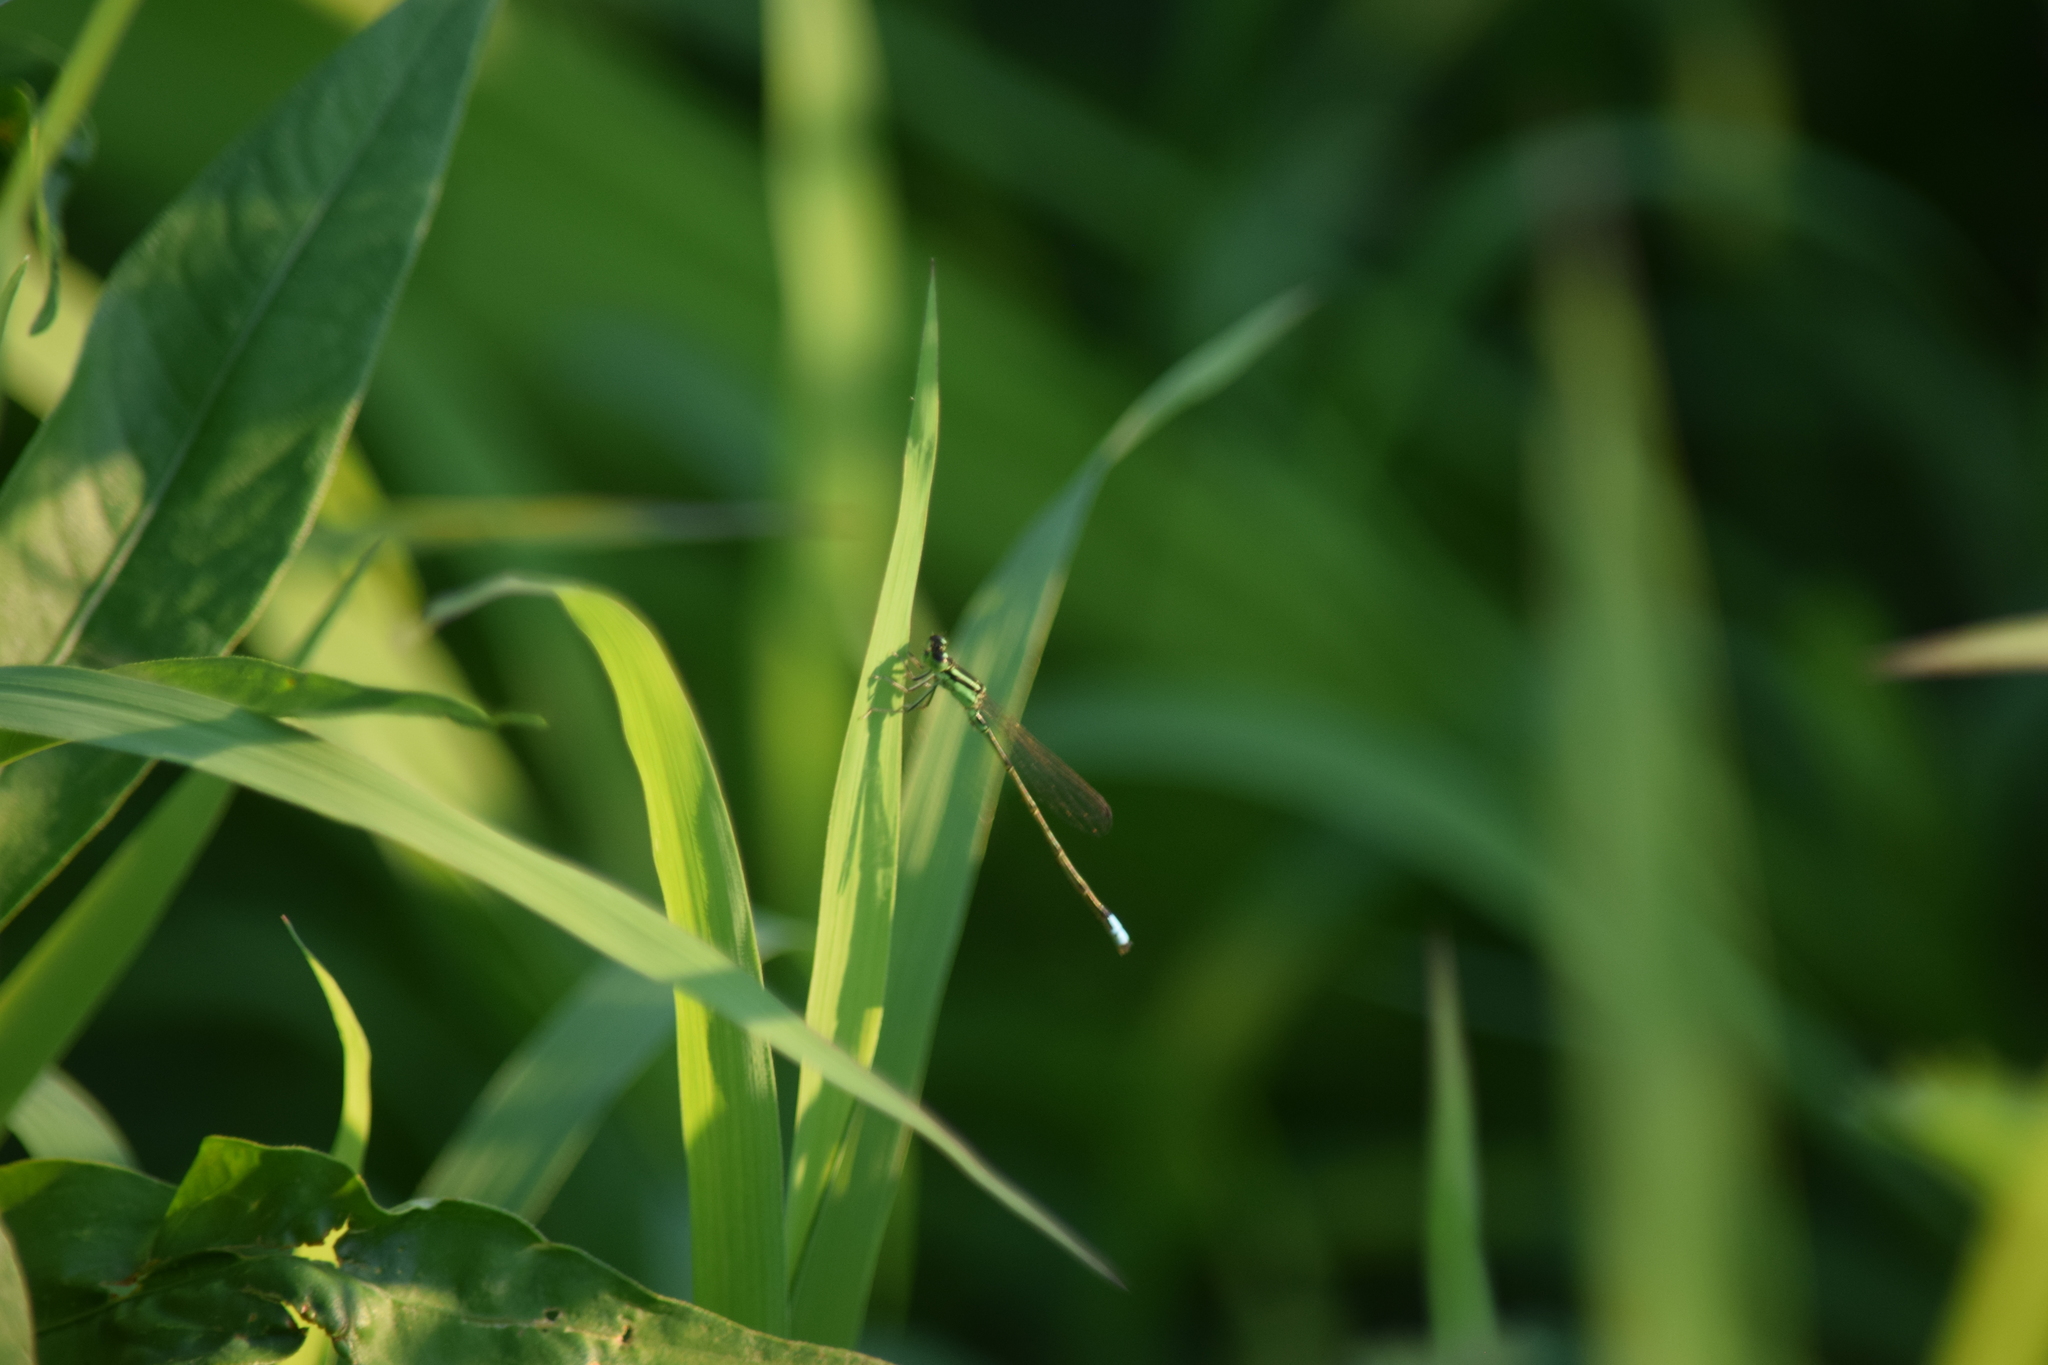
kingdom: Animalia
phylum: Arthropoda
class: Insecta
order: Odonata
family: Coenagrionidae
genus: Ischnura
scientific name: Ischnura verticalis
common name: Eastern forktail
